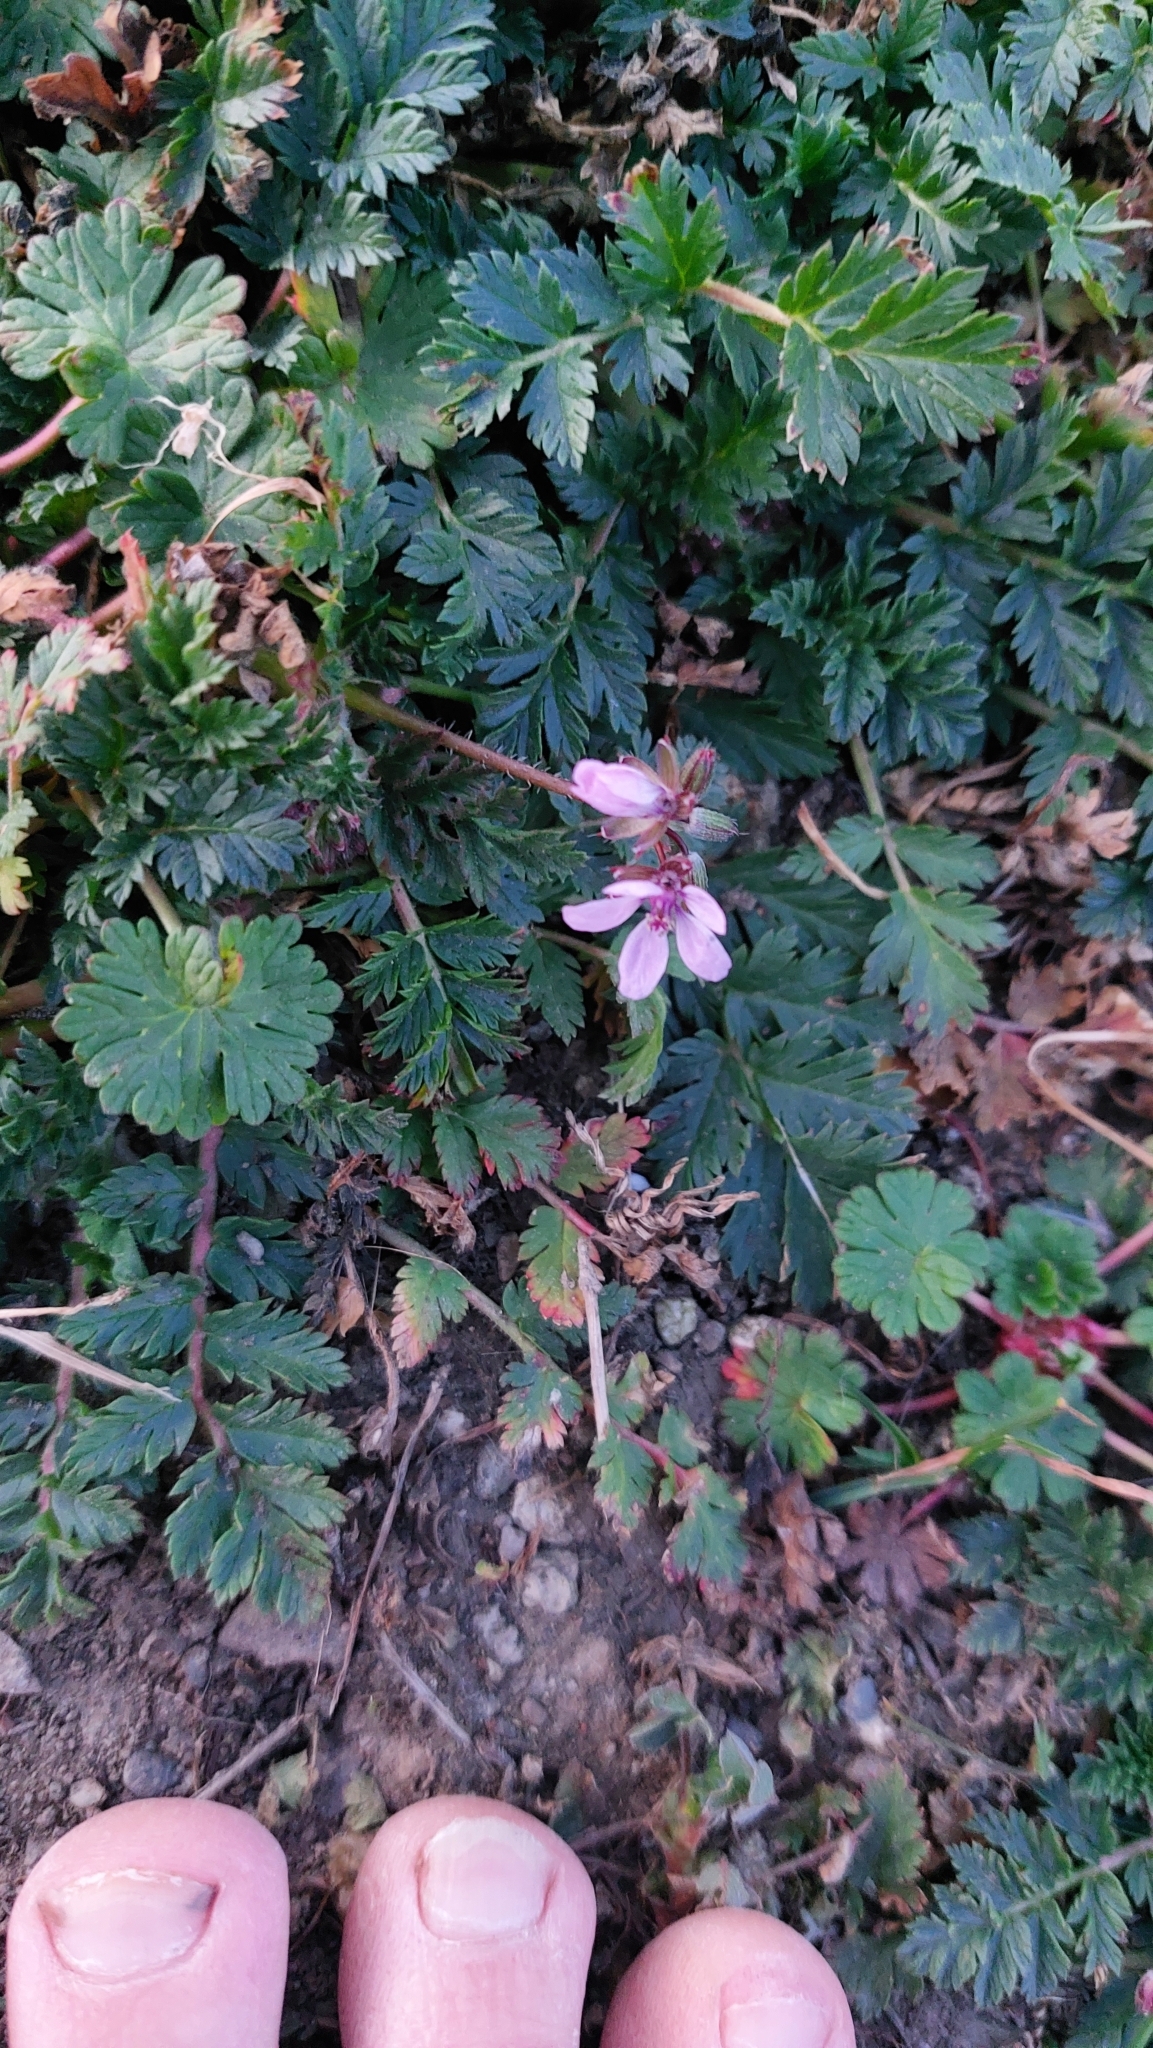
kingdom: Plantae
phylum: Tracheophyta
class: Magnoliopsida
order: Geraniales
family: Geraniaceae
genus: Erodium
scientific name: Erodium cicutarium
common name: Common stork's-bill
